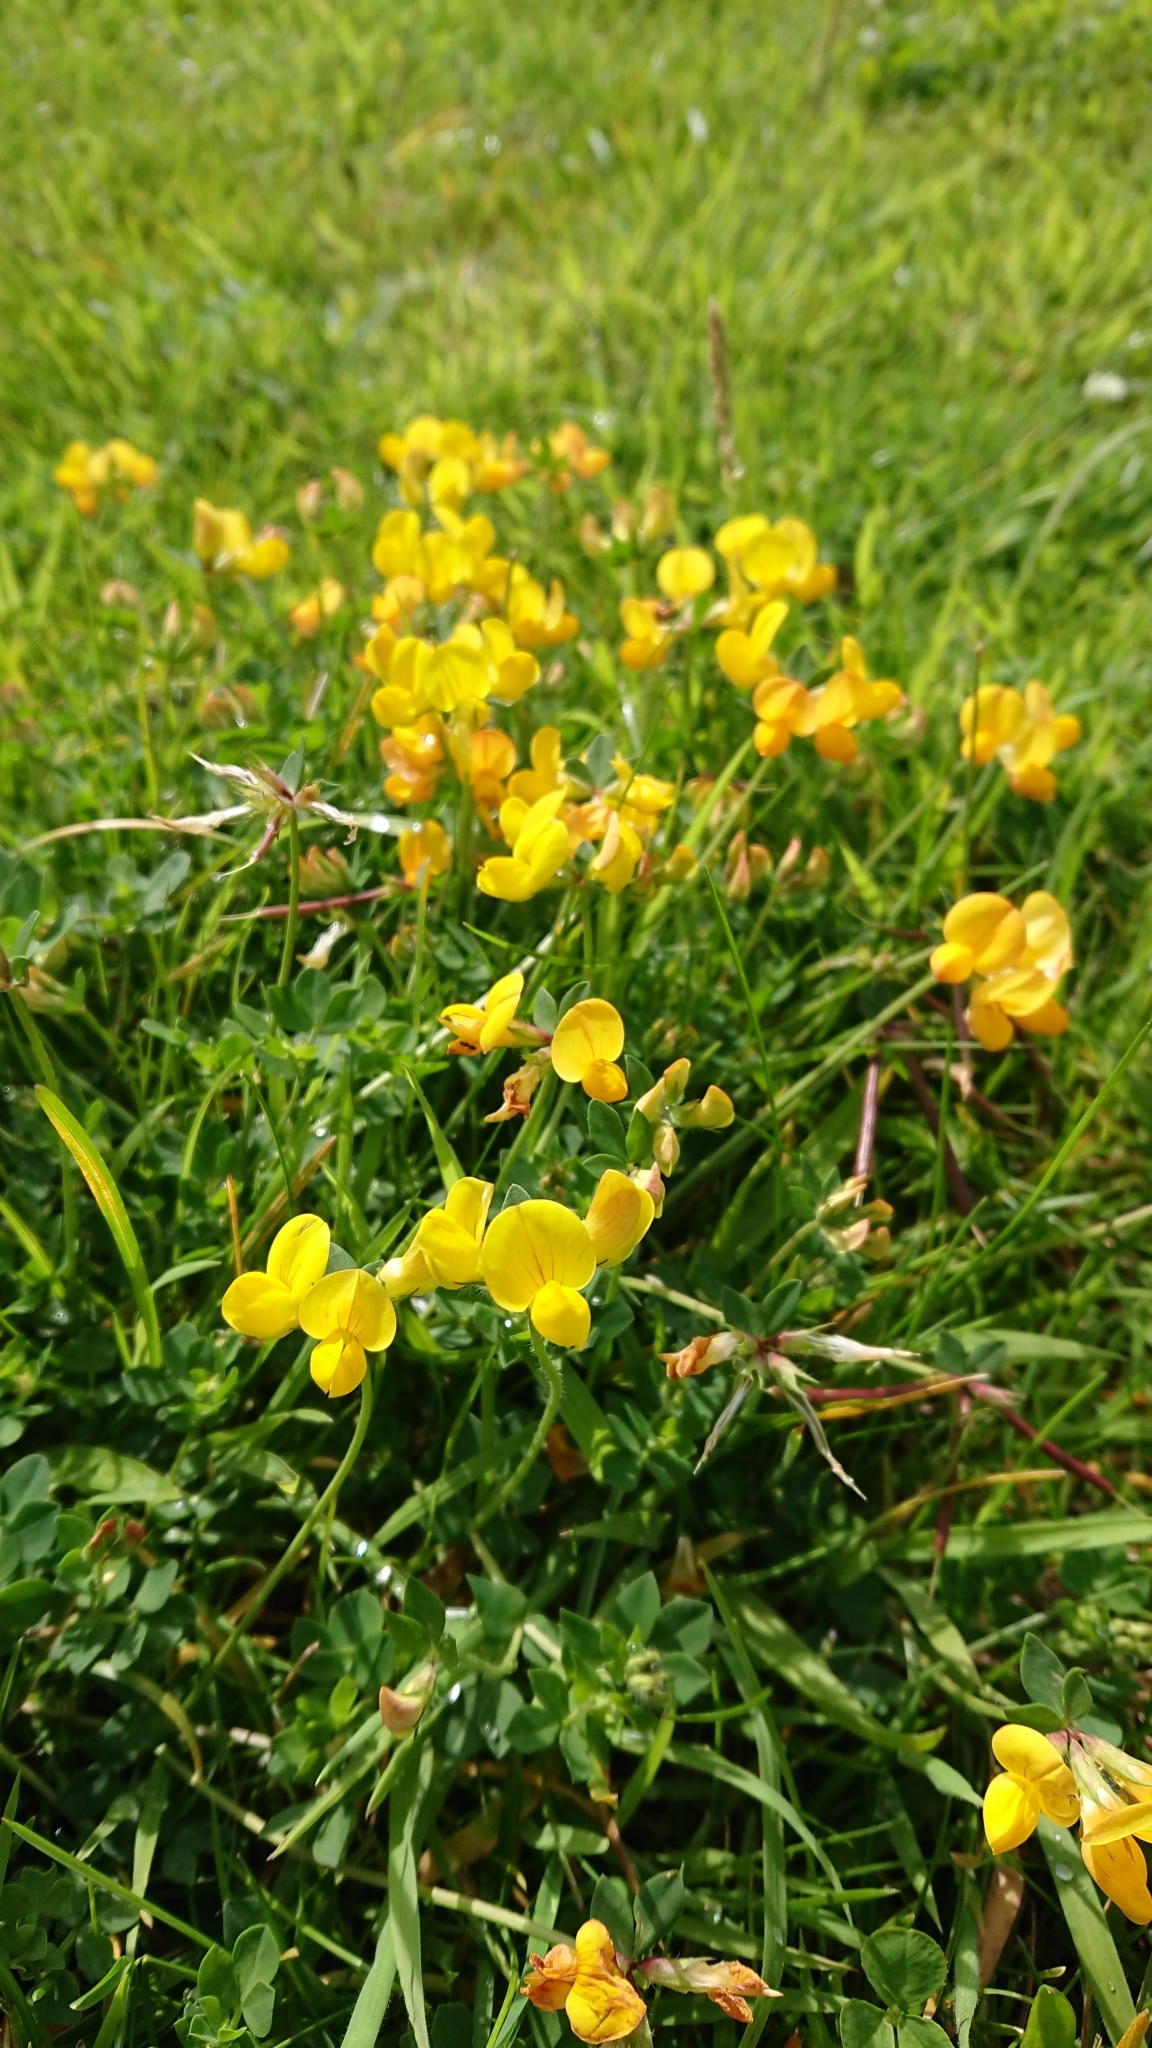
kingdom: Plantae
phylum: Tracheophyta
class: Magnoliopsida
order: Fabales
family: Fabaceae
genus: Lotus
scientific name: Lotus corniculatus
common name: Common bird's-foot-trefoil
